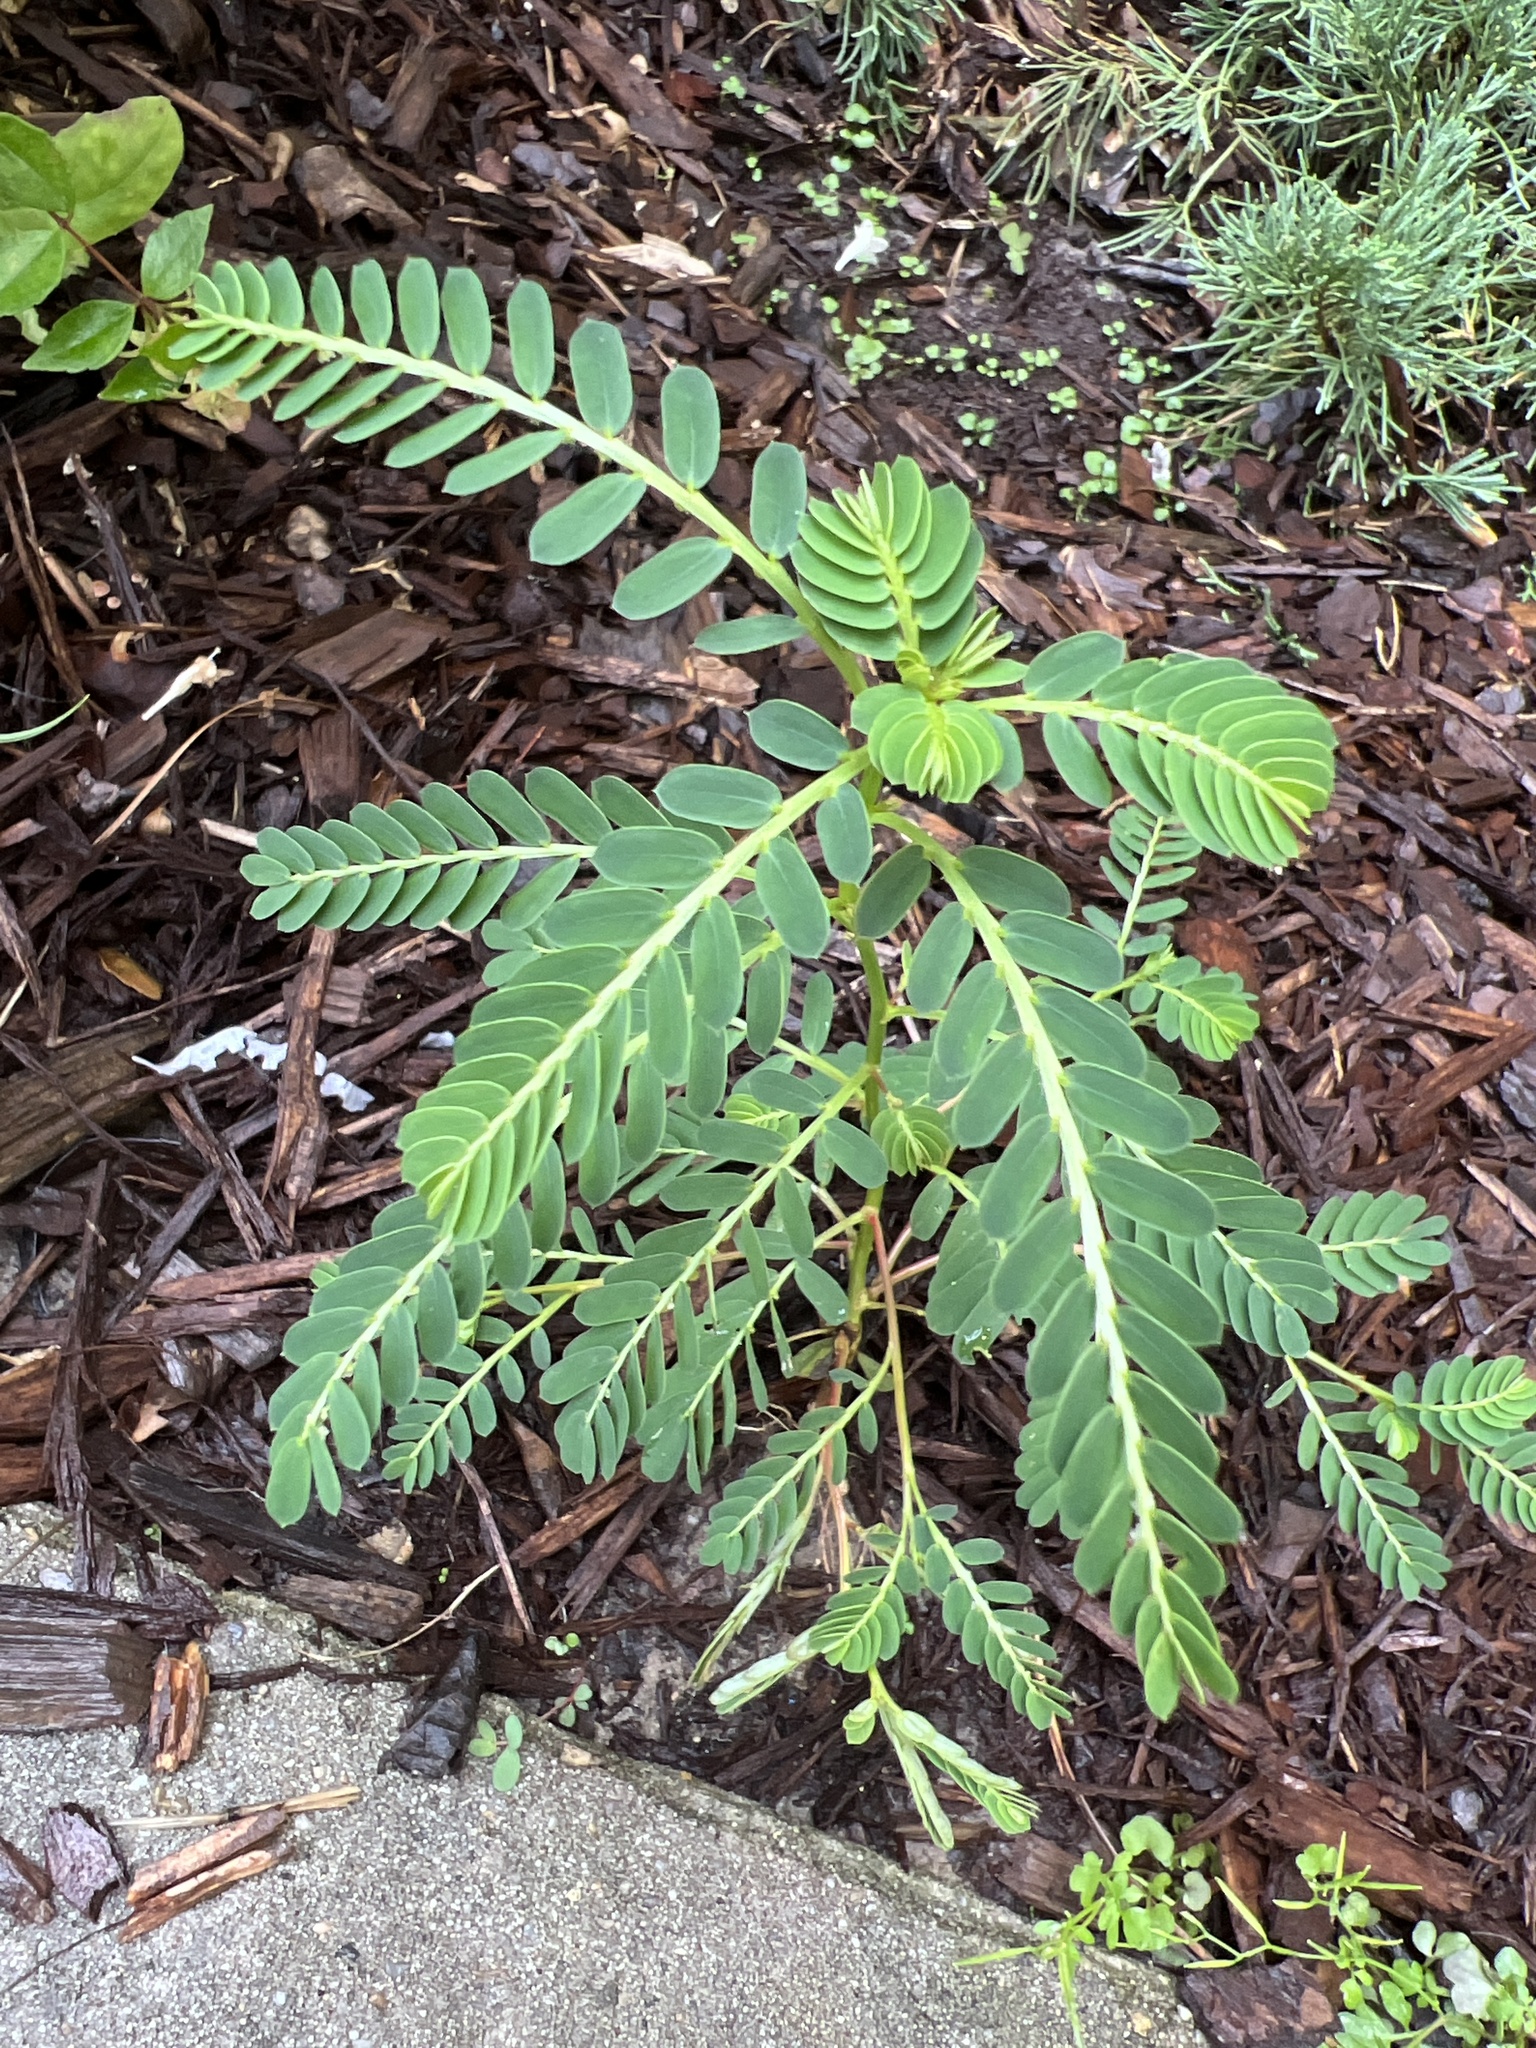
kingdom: Plantae
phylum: Tracheophyta
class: Magnoliopsida
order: Malpighiales
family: Phyllanthaceae
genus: Phyllanthus
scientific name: Phyllanthus urinaria
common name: Chamber bitter
